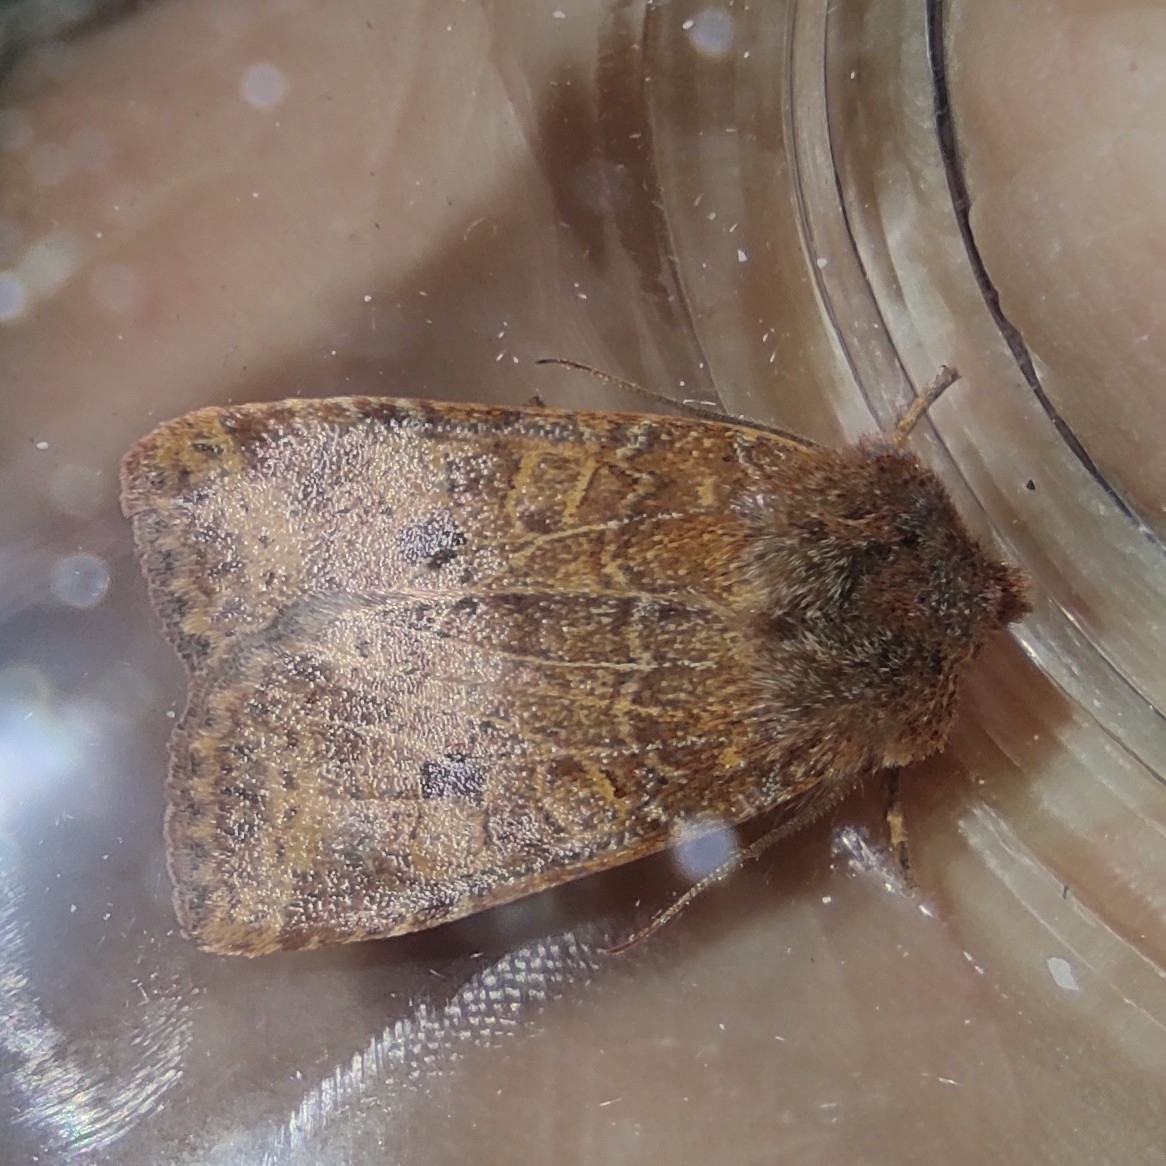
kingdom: Animalia
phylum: Arthropoda
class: Insecta
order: Lepidoptera
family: Noctuidae
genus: Conistra
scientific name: Conistra vaccinii
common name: Chestnut
